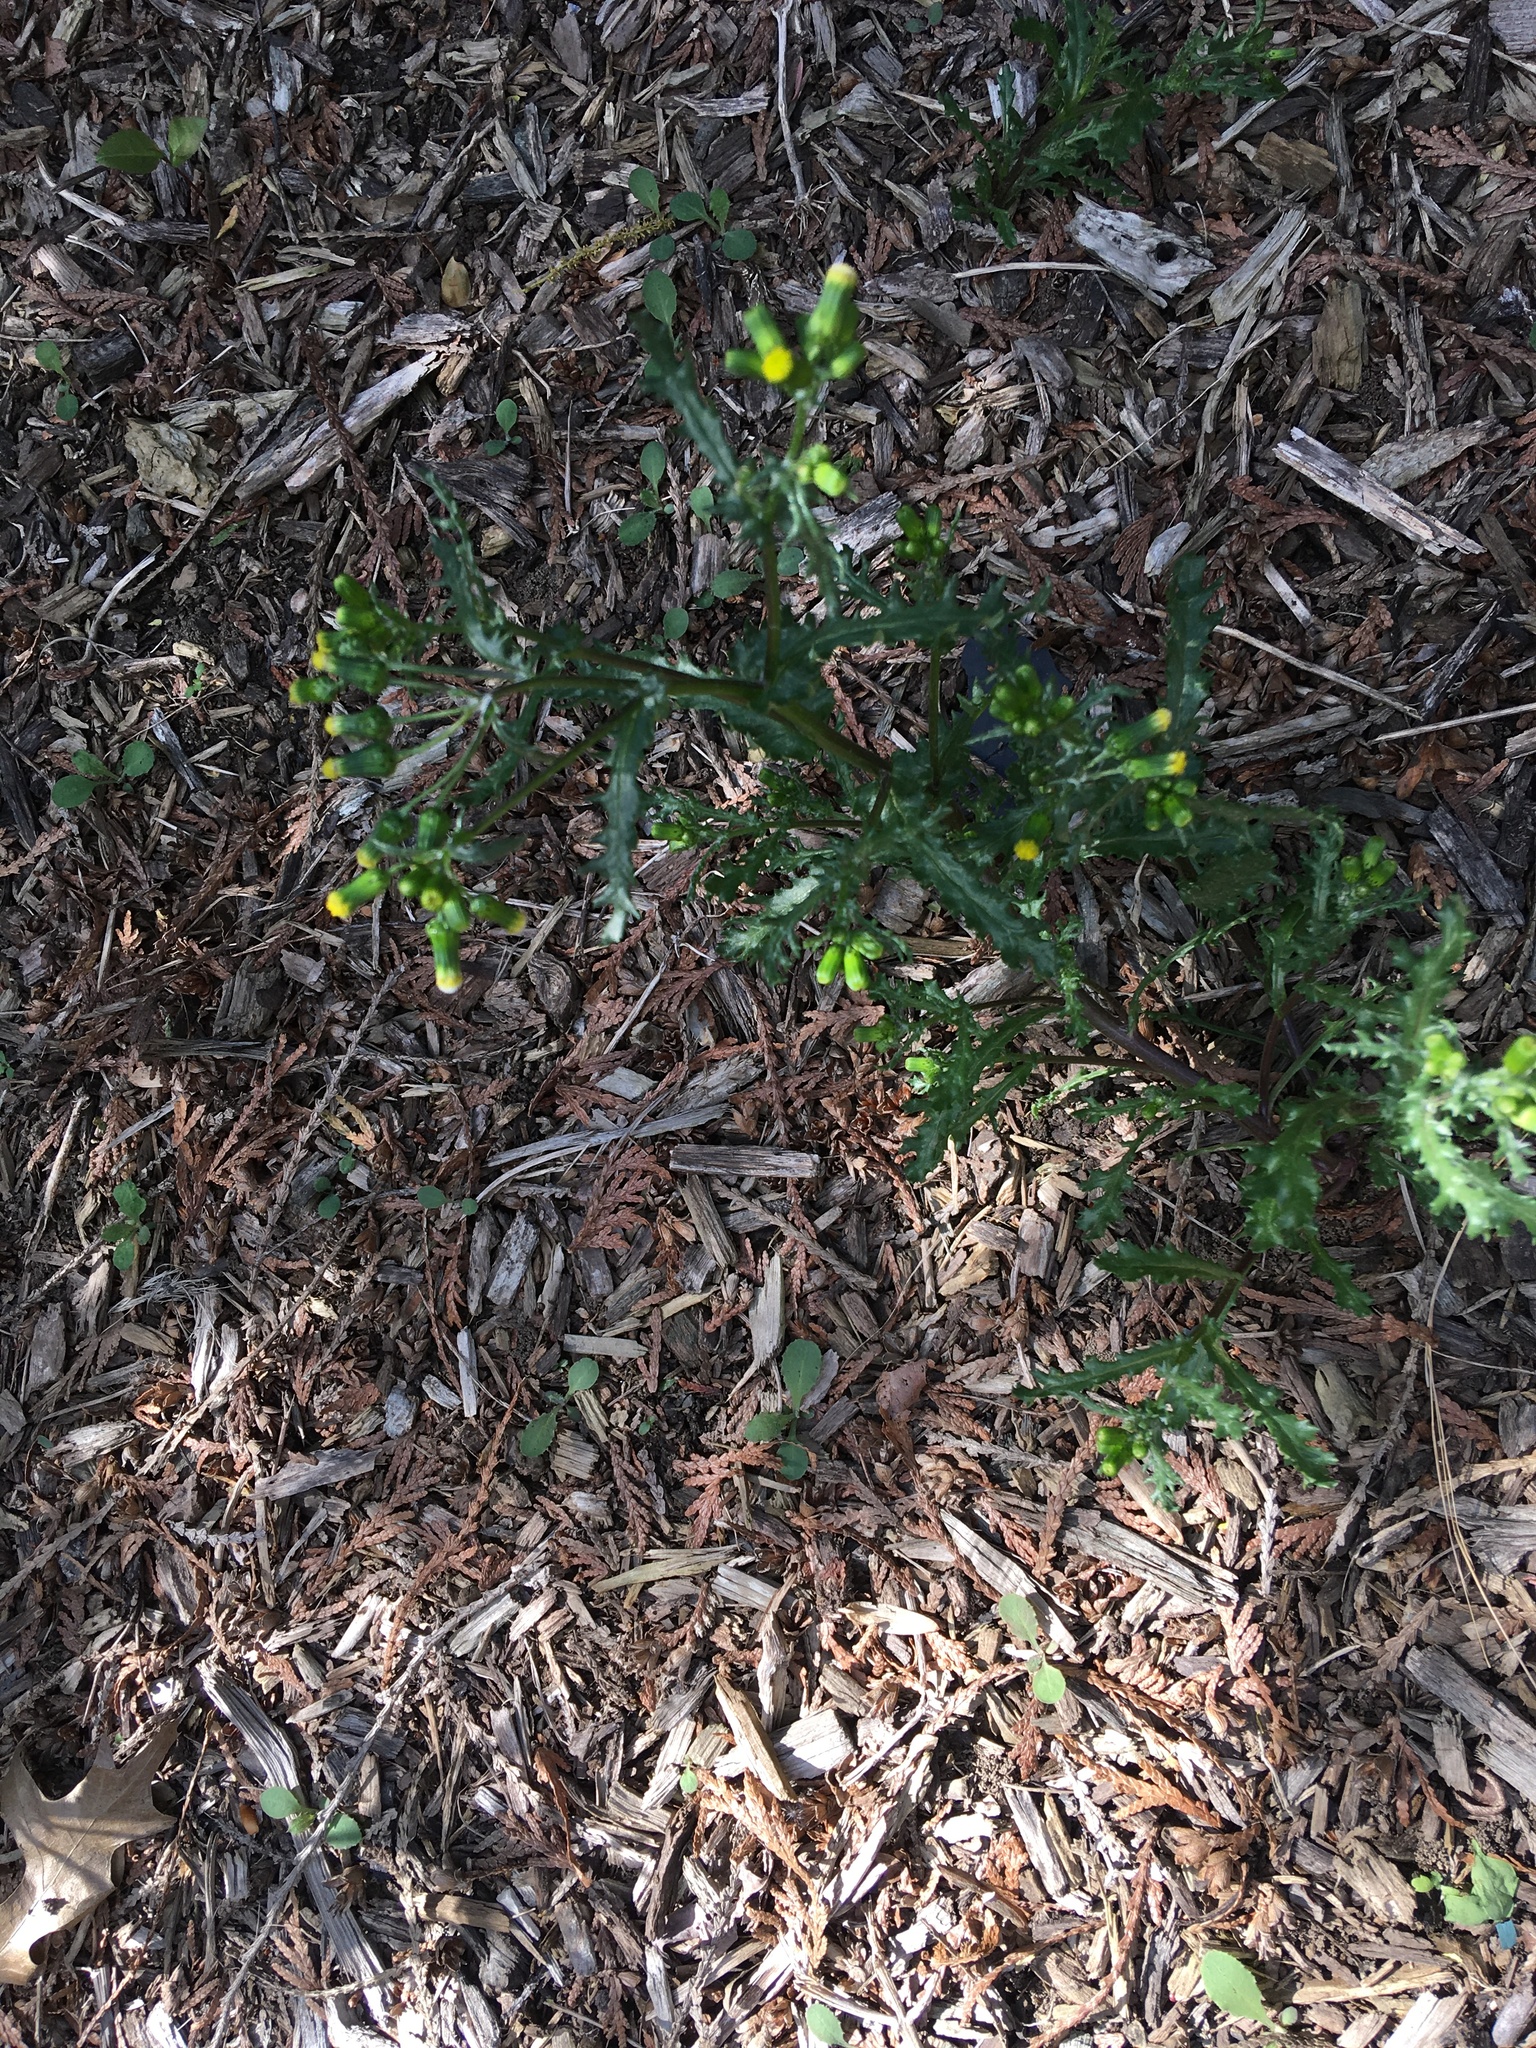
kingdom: Plantae
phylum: Tracheophyta
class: Magnoliopsida
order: Asterales
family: Asteraceae
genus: Senecio
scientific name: Senecio vulgaris
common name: Old-man-in-the-spring
